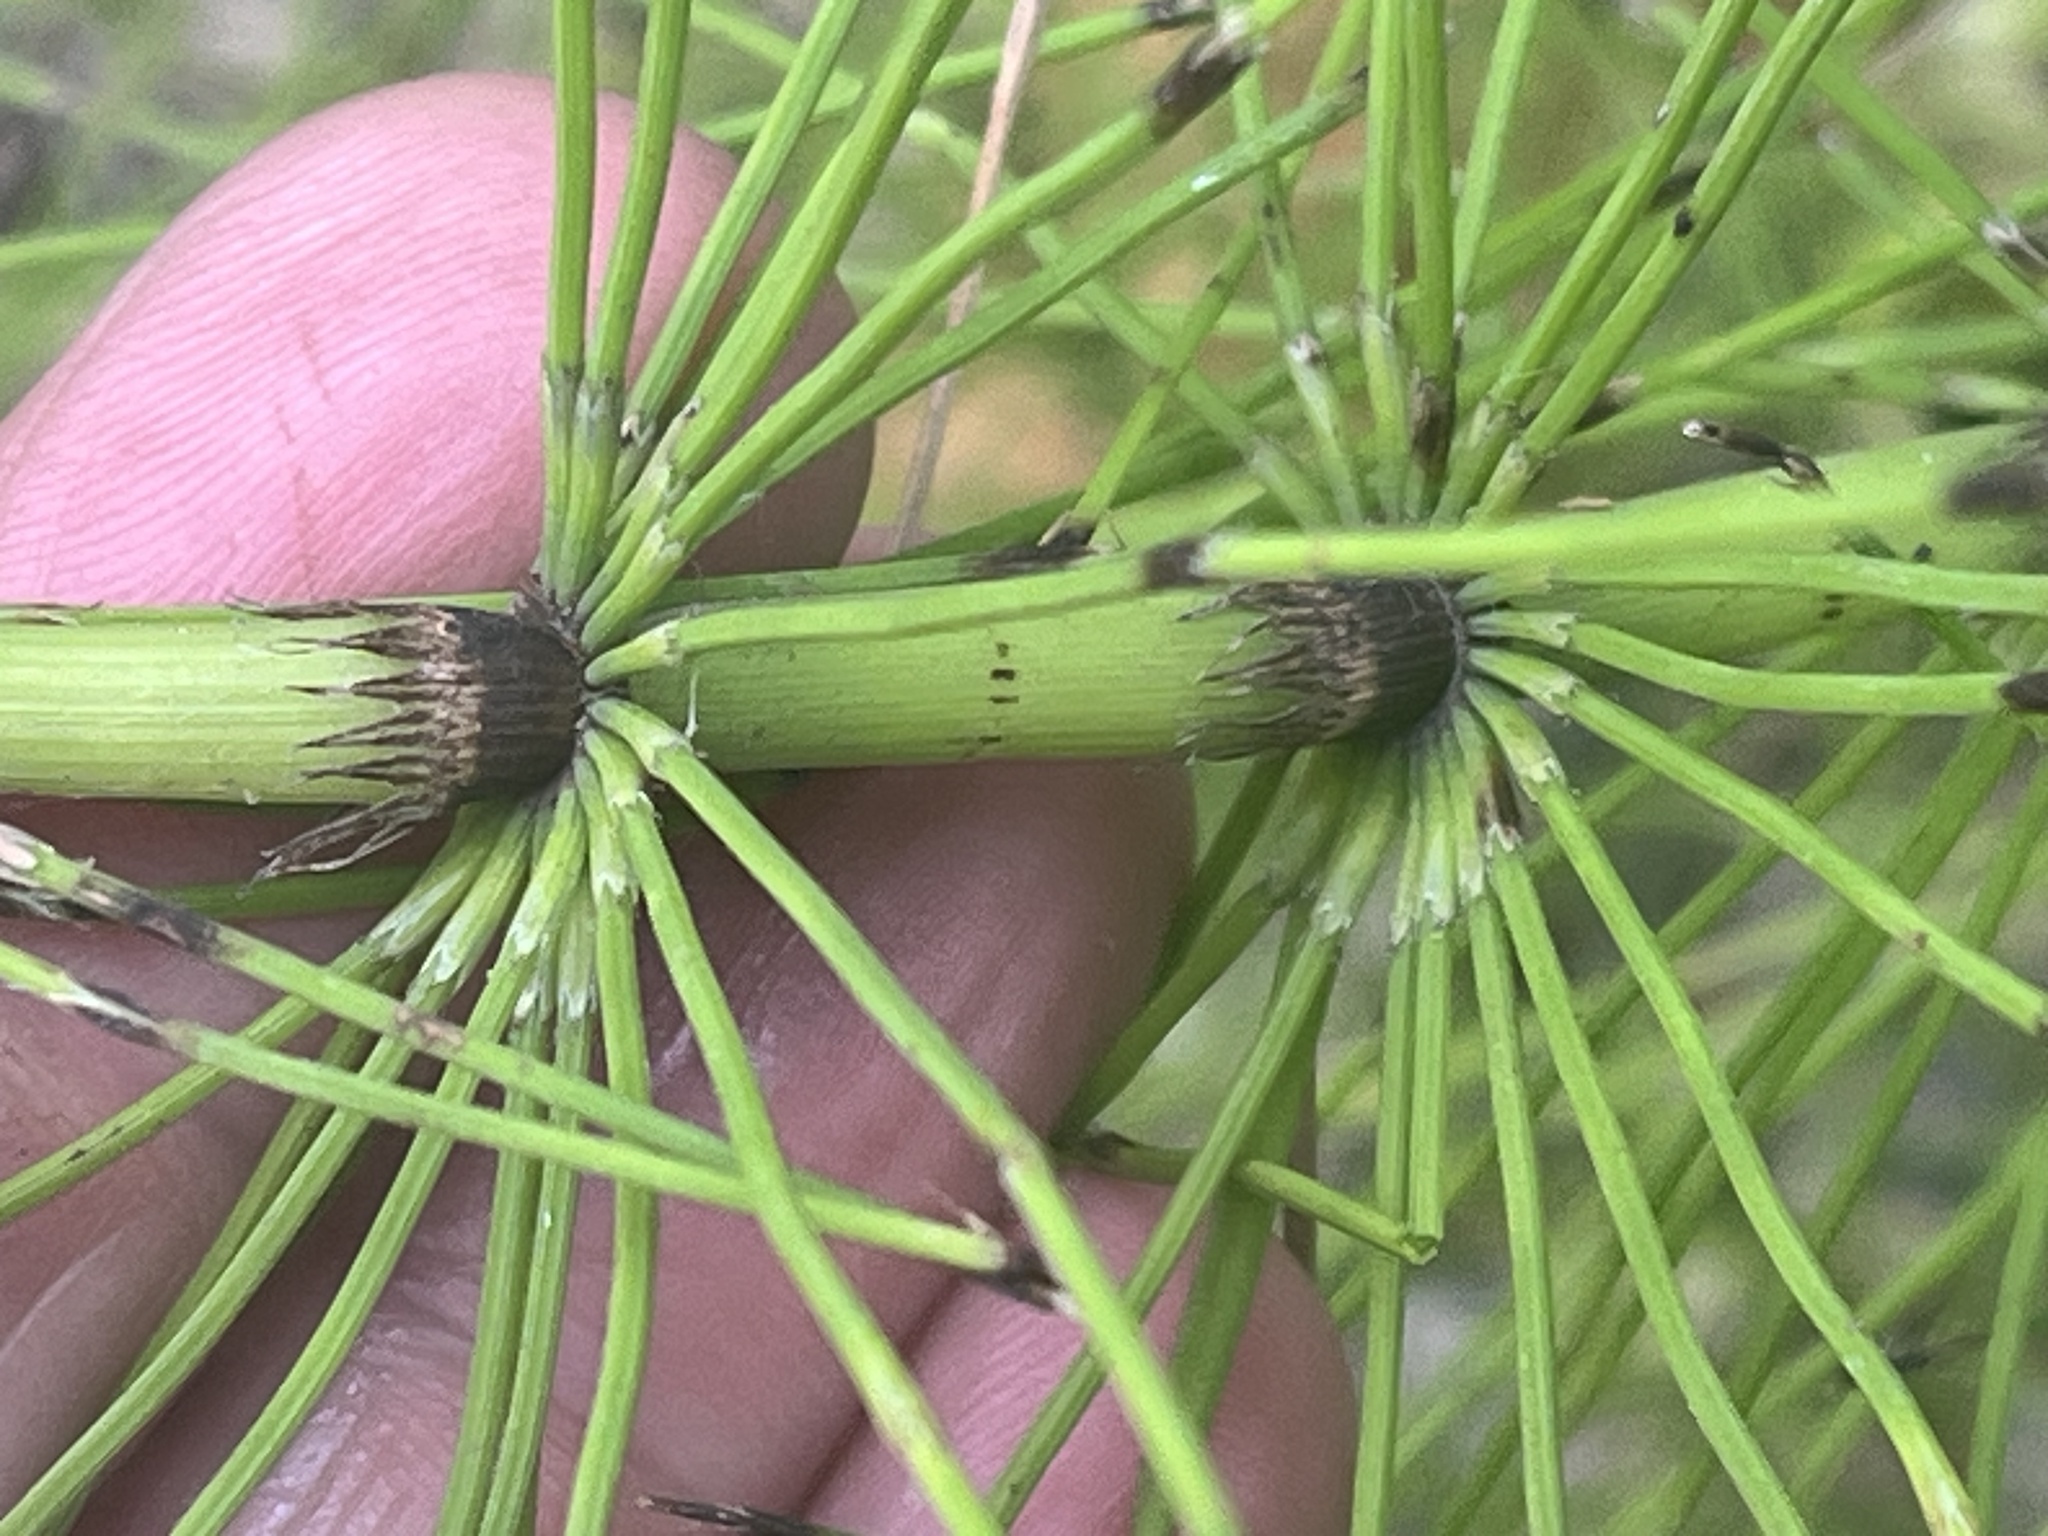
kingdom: Plantae
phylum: Tracheophyta
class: Polypodiopsida
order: Equisetales
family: Equisetaceae
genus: Equisetum
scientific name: Equisetum braunii
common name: Braun's horsetail
